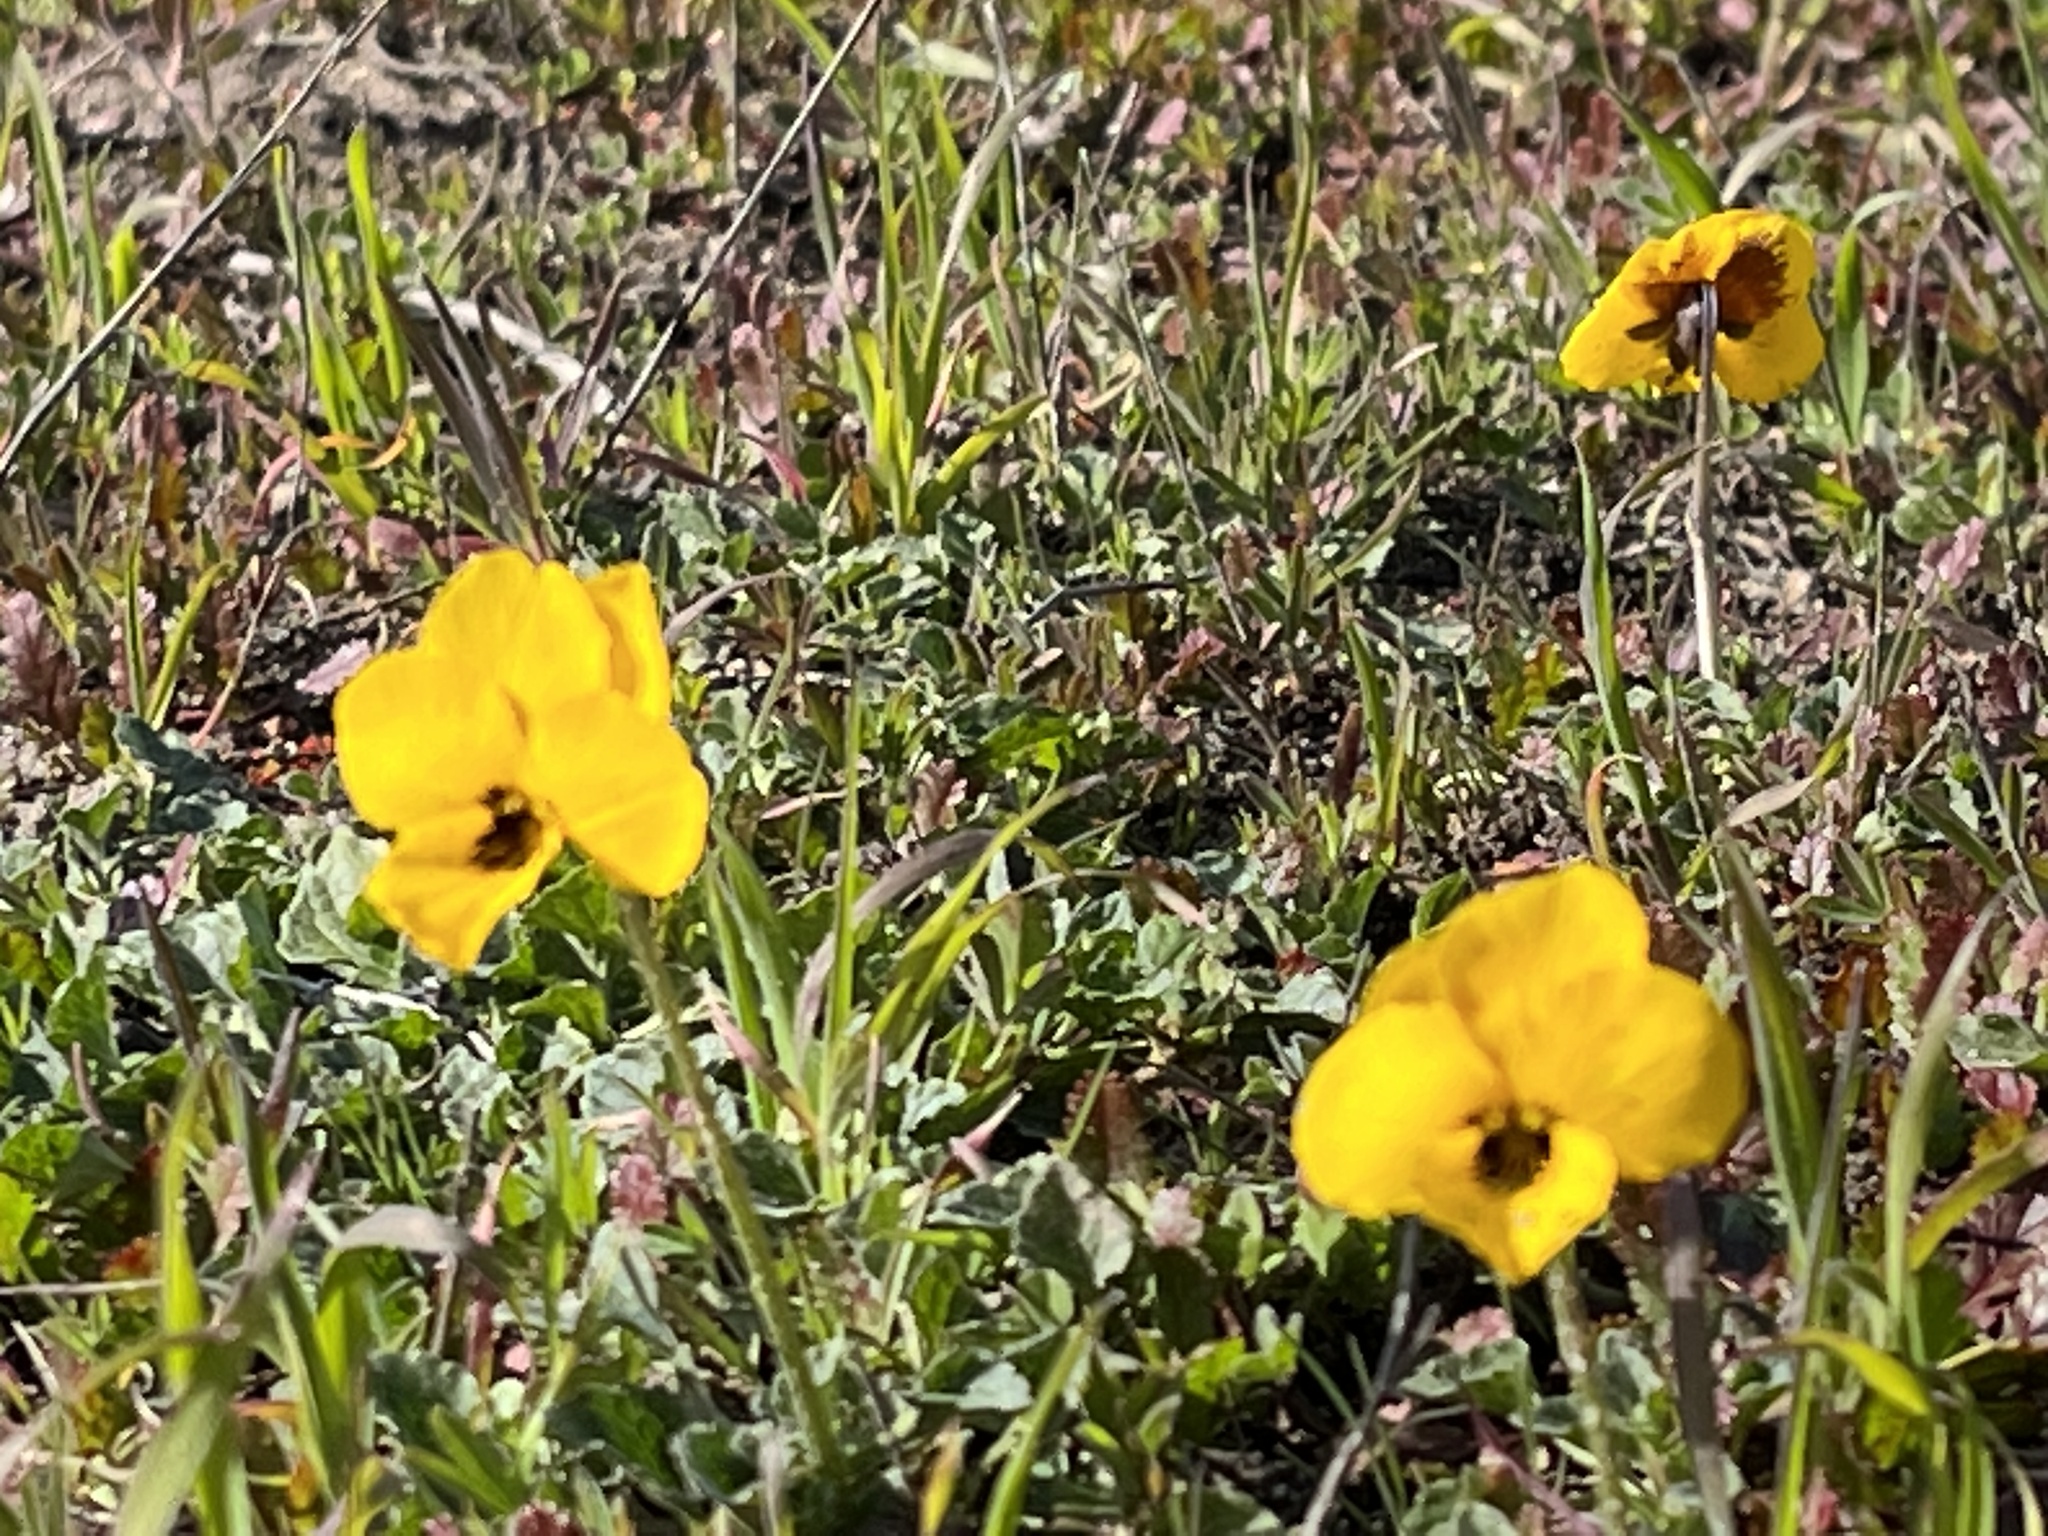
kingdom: Plantae
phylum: Tracheophyta
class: Magnoliopsida
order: Malpighiales
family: Violaceae
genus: Viola
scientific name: Viola pedunculata
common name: California golden violet
